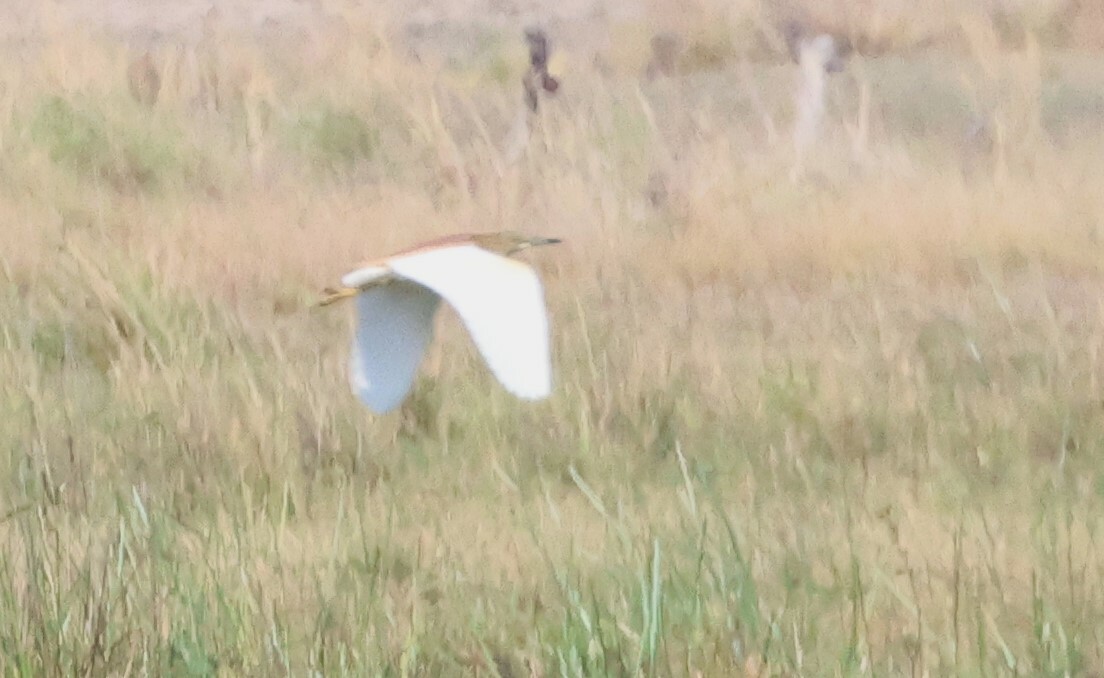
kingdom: Animalia
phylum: Chordata
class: Aves
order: Pelecaniformes
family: Ardeidae
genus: Ardeola
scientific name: Ardeola ralloides
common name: Squacco heron
